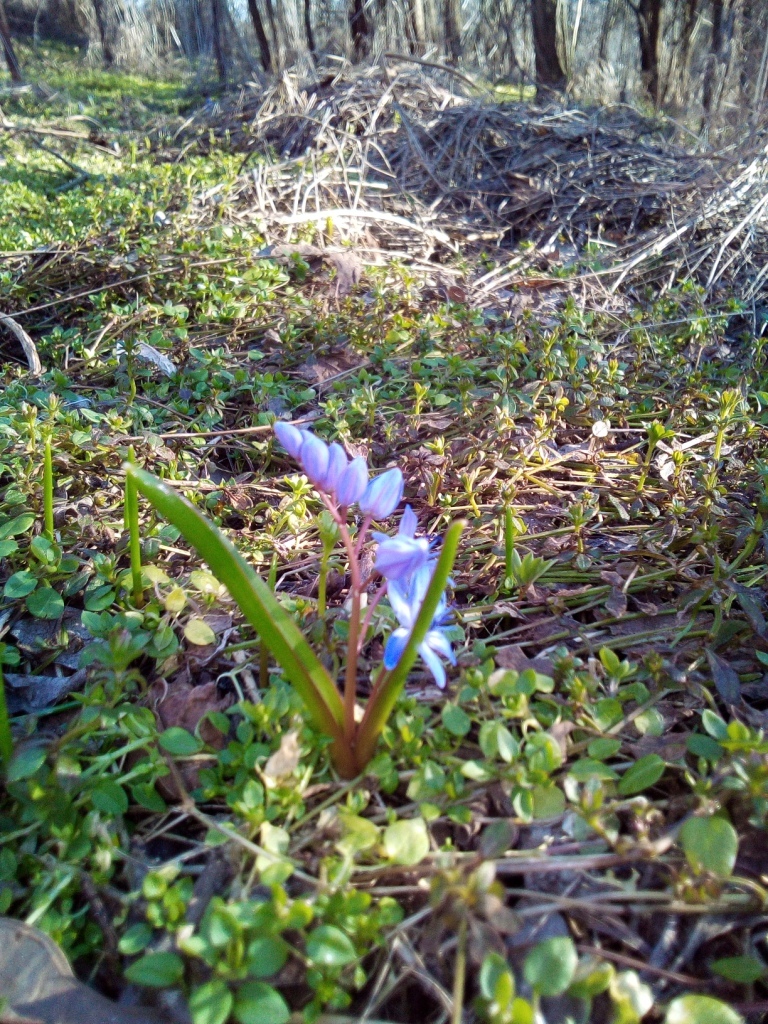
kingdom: Plantae
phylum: Tracheophyta
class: Liliopsida
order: Asparagales
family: Asparagaceae
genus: Scilla
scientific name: Scilla bifolia
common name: Alpine squill
